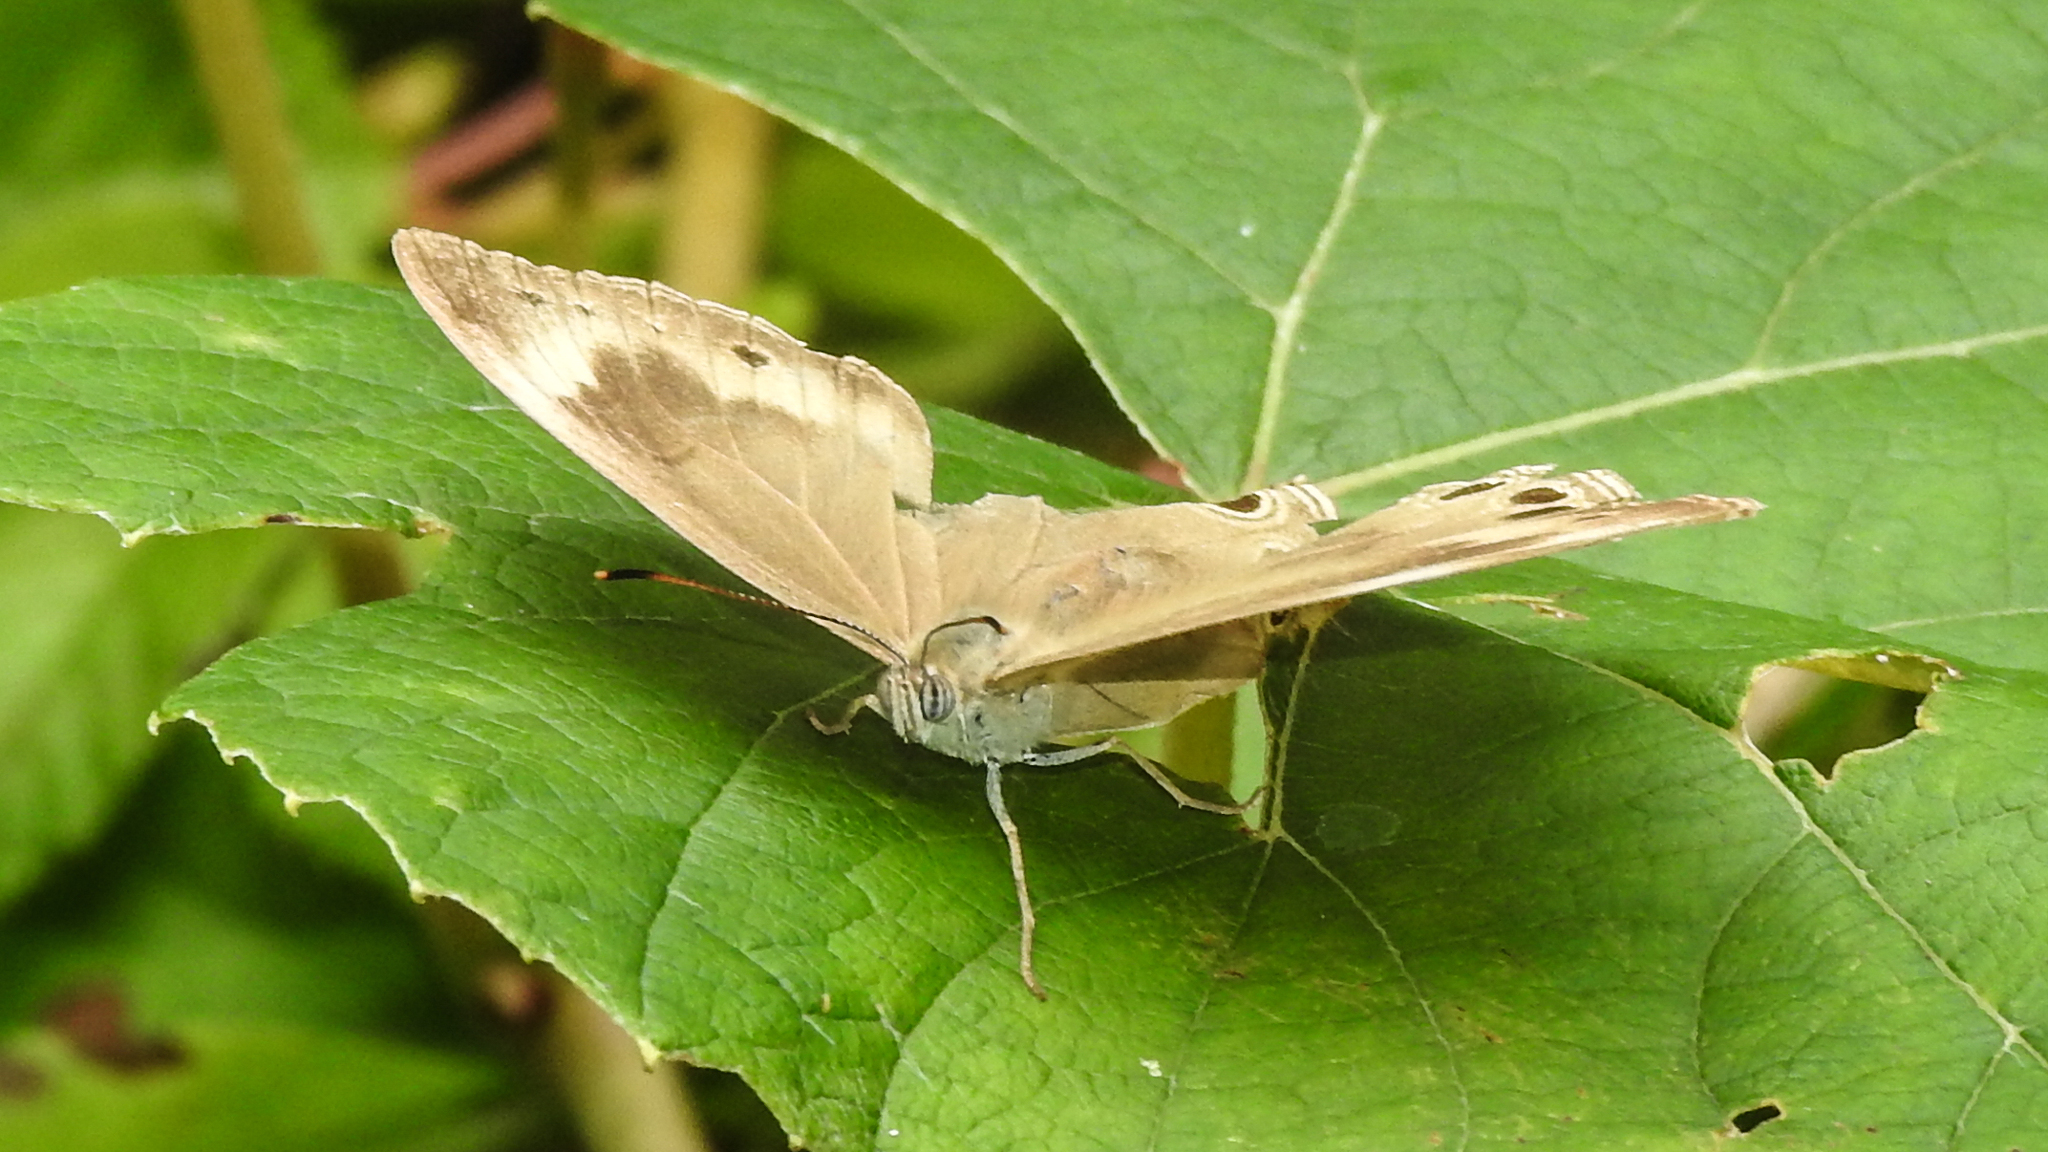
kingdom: Animalia
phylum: Arthropoda
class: Insecta
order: Lepidoptera
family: Nymphalidae
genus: Lethe
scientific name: Lethe eurydice
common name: Eyed brown
